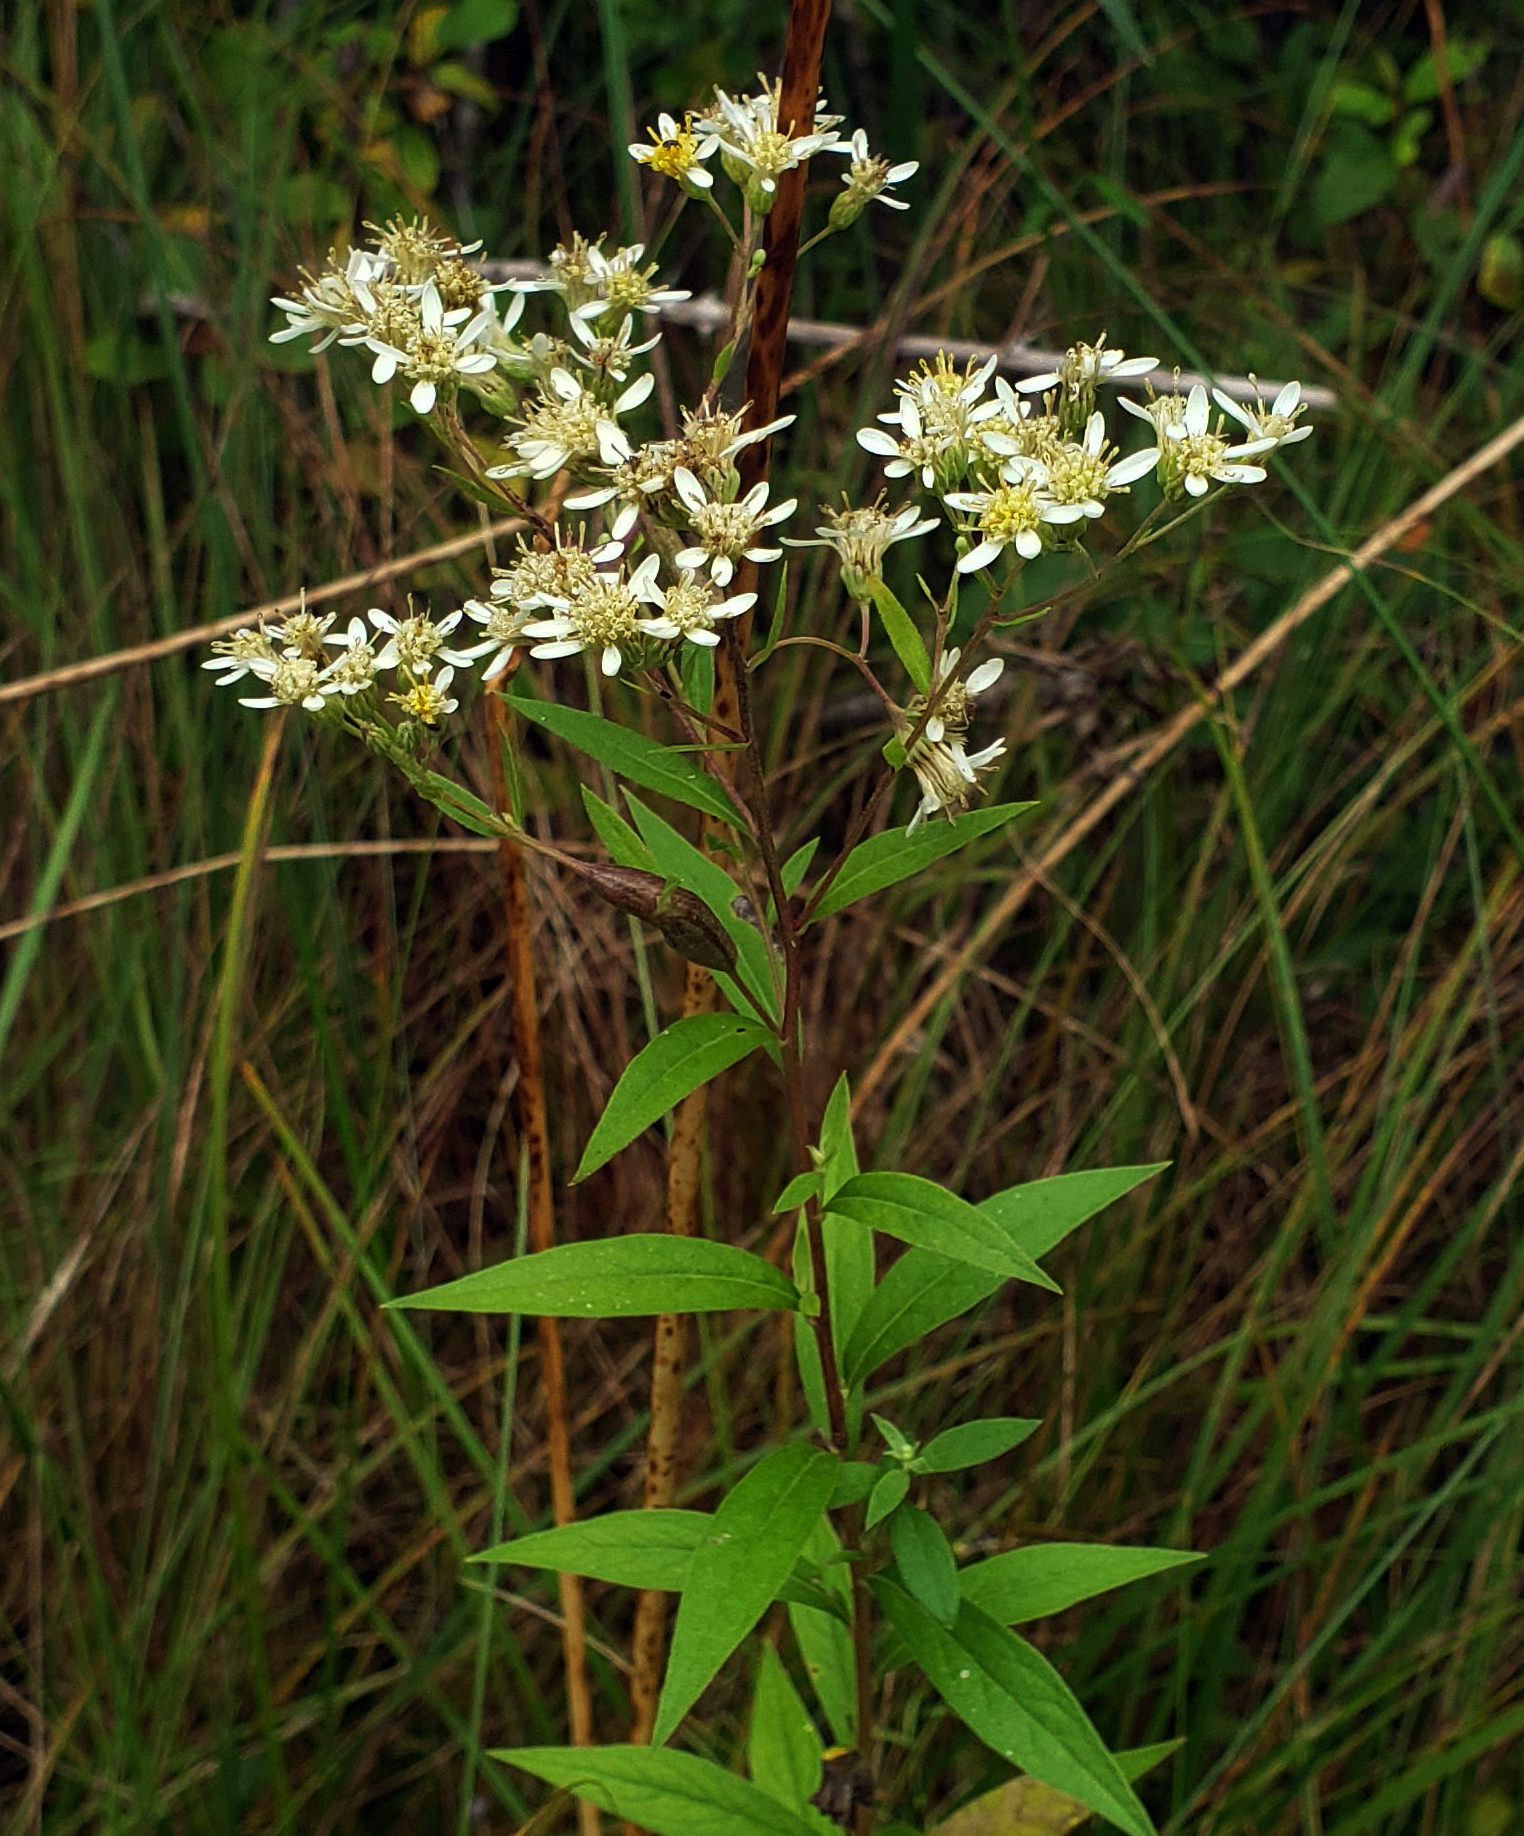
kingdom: Plantae
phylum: Tracheophyta
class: Magnoliopsida
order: Asterales
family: Asteraceae
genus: Doellingeria
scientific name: Doellingeria umbellata
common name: Flat-top white aster
